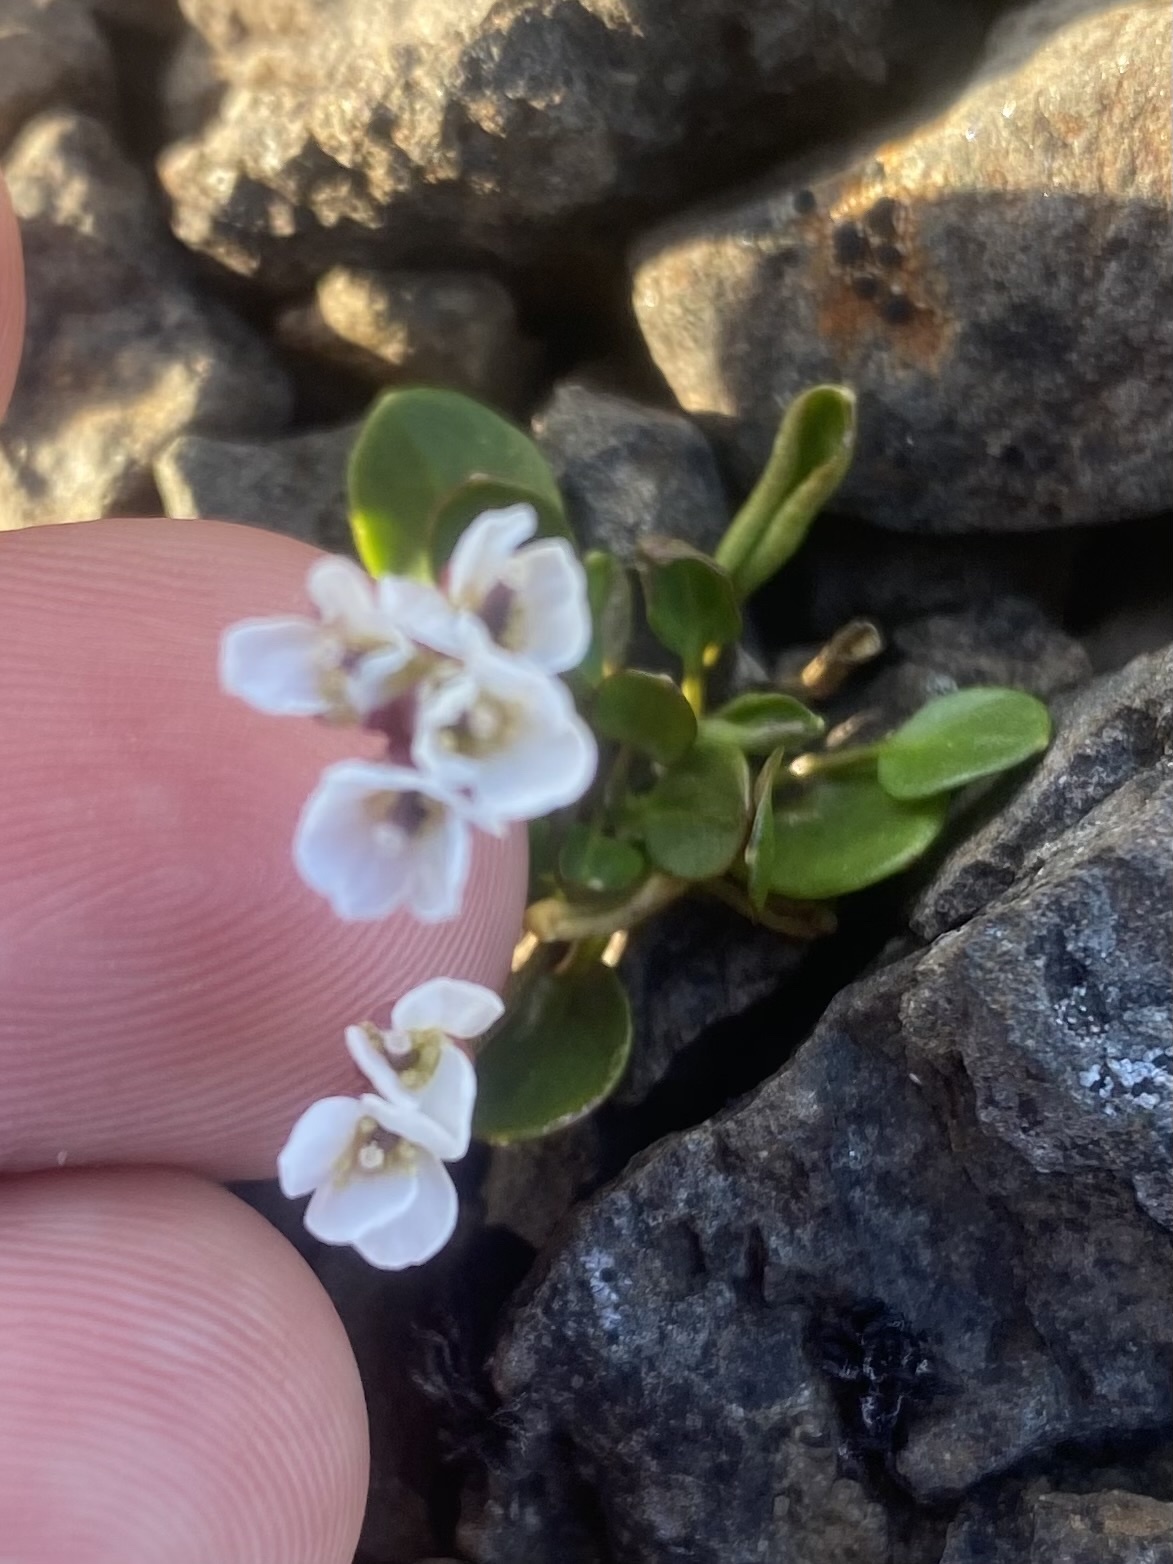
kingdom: Plantae
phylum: Tracheophyta
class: Magnoliopsida
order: Brassicales
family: Brassicaceae
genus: Cardamine
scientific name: Cardamine bellidifolia
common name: Alpine bittercress
